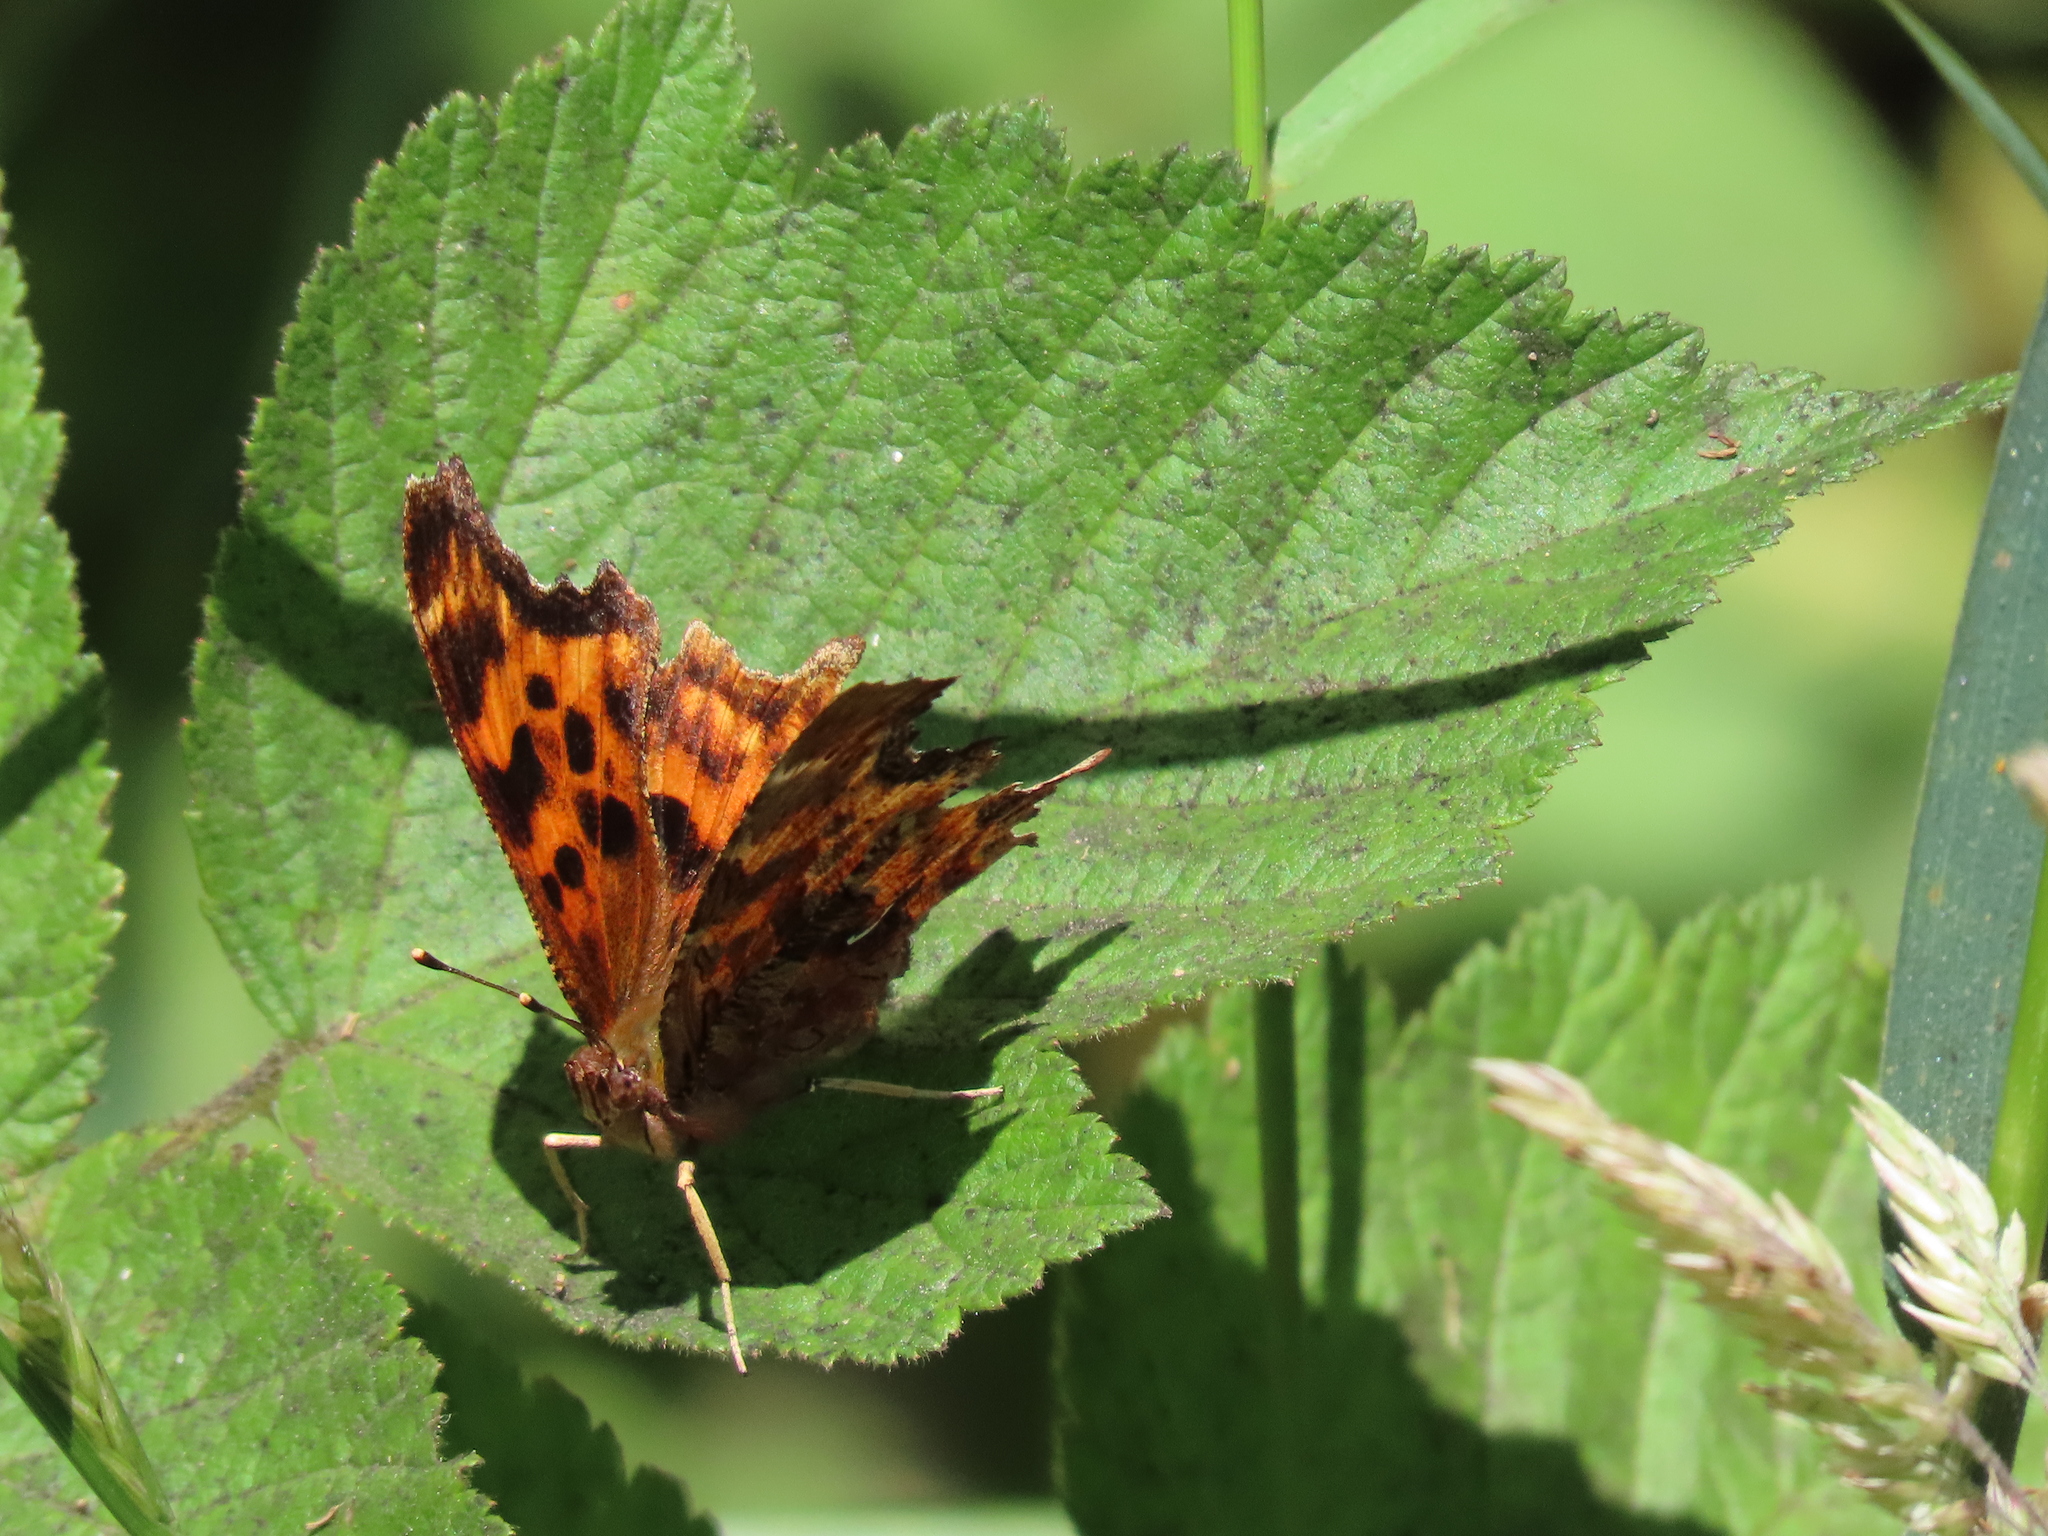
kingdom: Animalia
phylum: Arthropoda
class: Insecta
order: Lepidoptera
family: Nymphalidae
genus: Polygonia
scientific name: Polygonia satyrus
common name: Satyr angle wing
